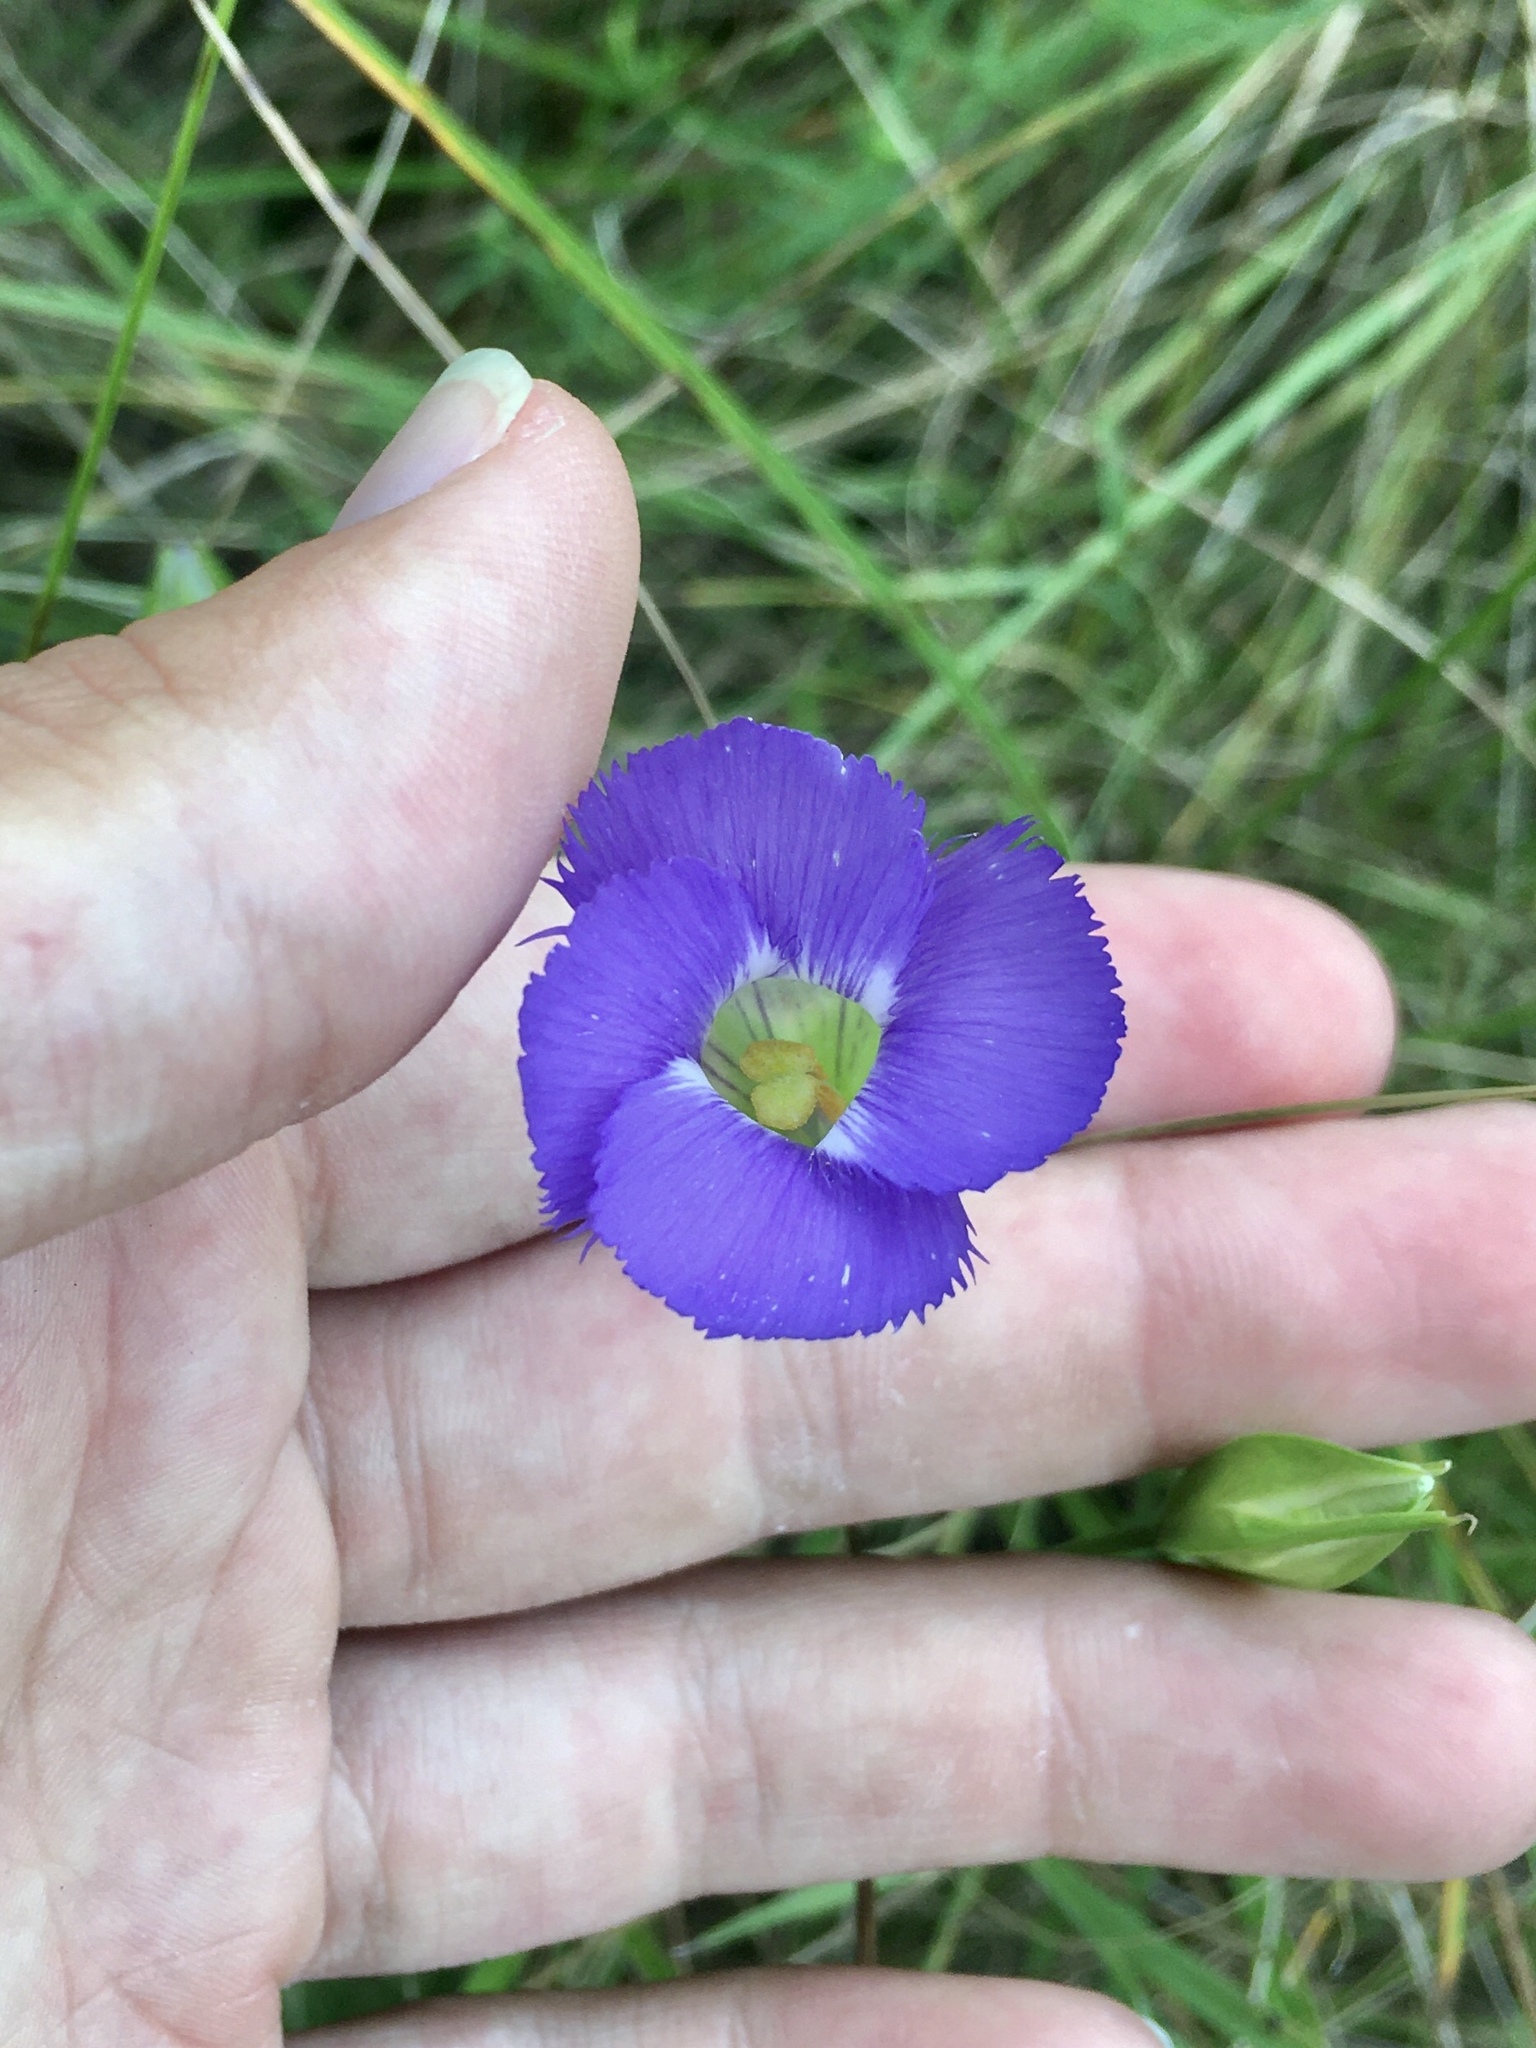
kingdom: Plantae
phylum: Tracheophyta
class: Magnoliopsida
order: Gentianales
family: Gentianaceae
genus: Gentianopsis
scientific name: Gentianopsis virgata
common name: Lesser fringed-gentian
